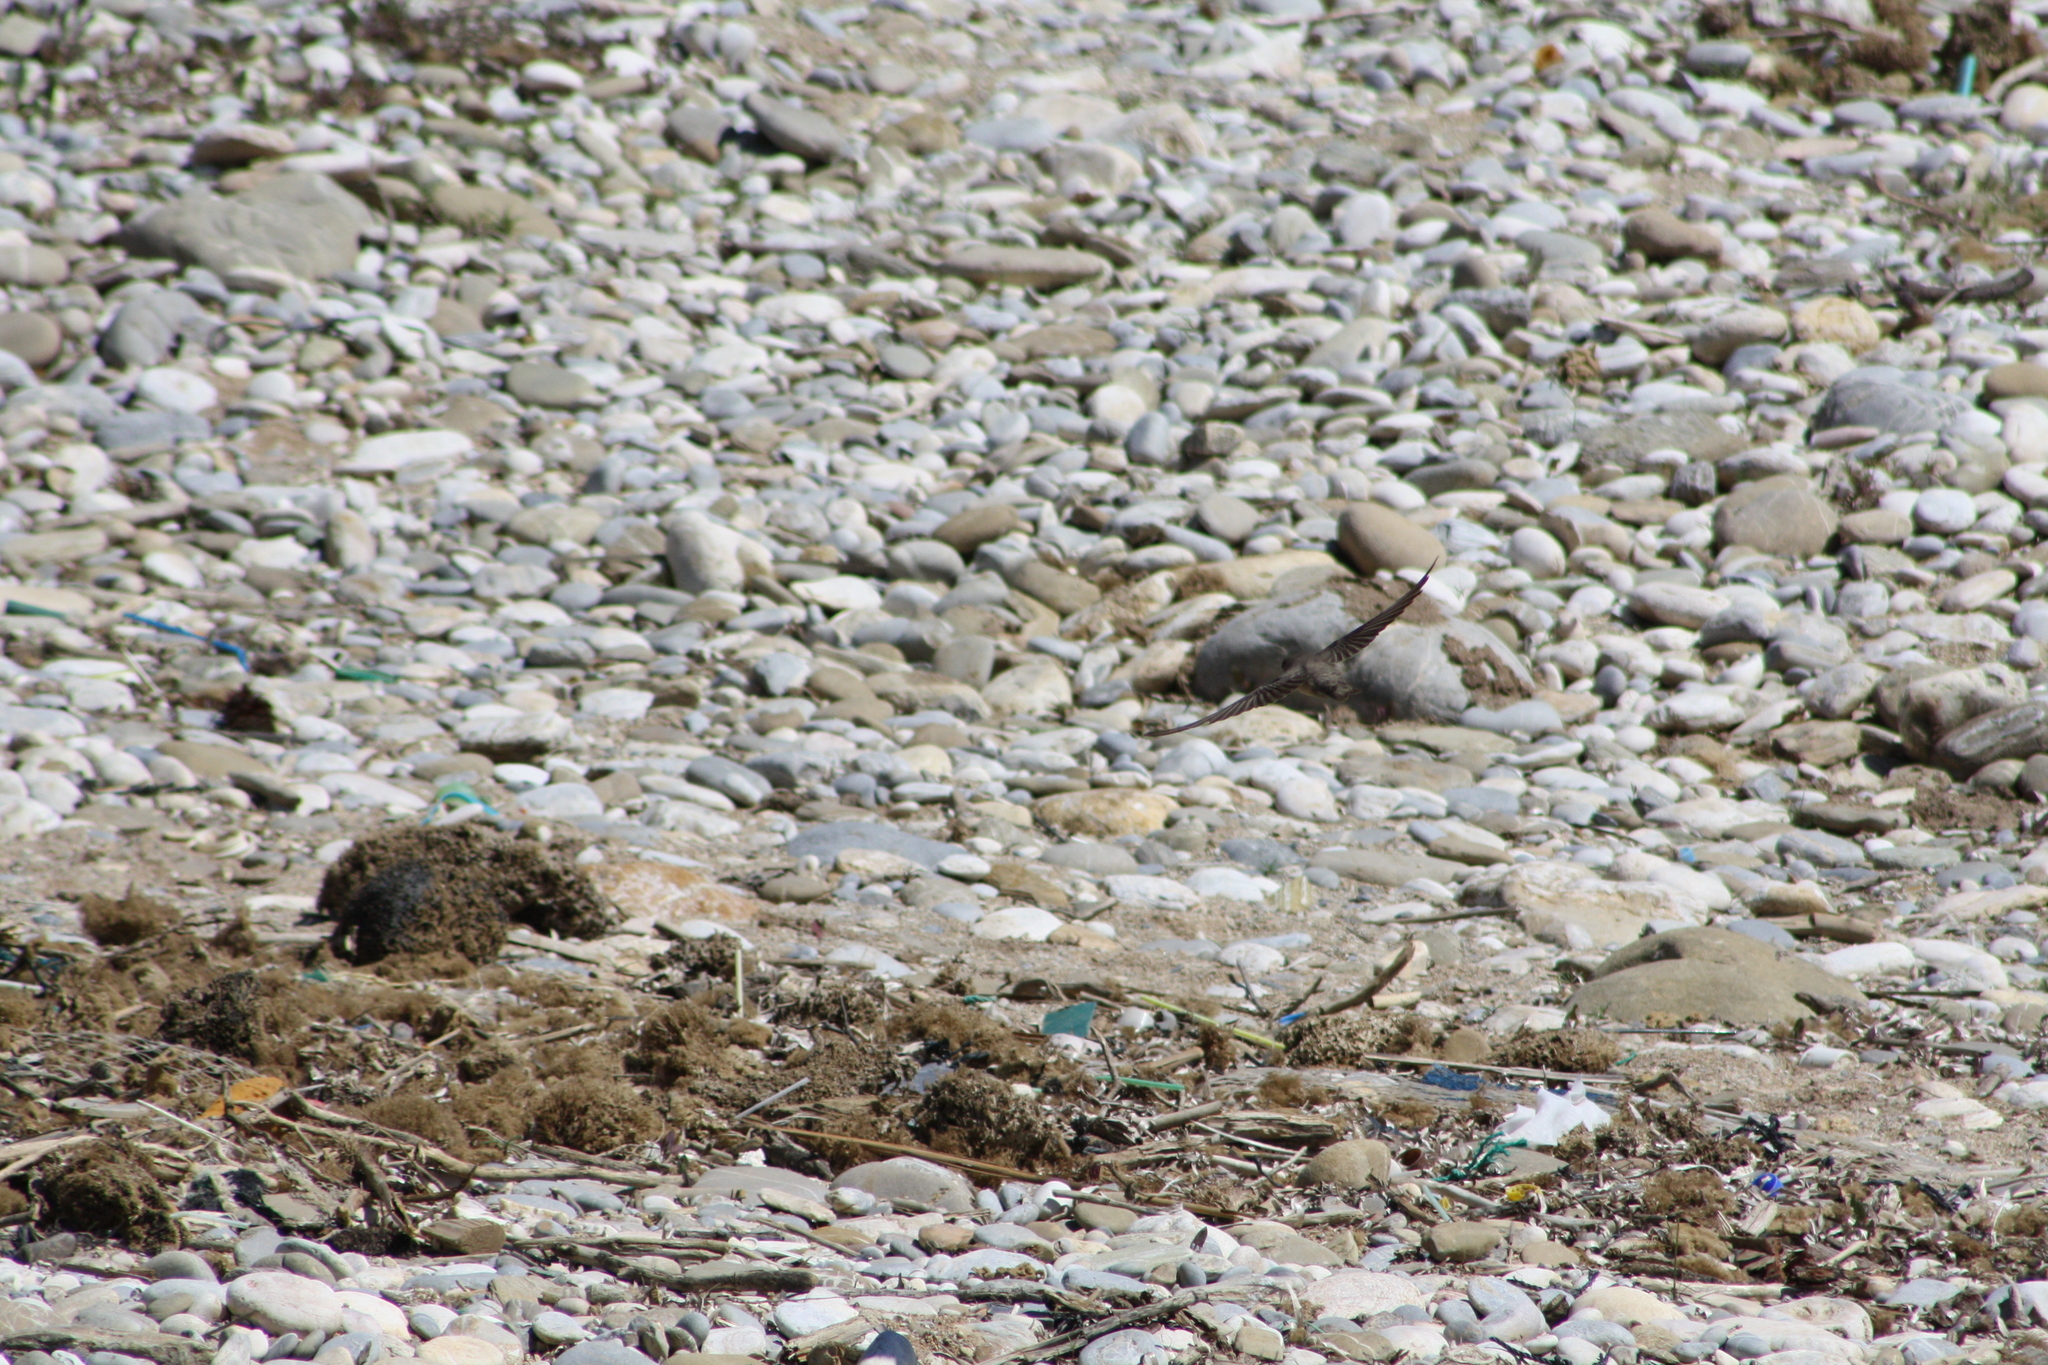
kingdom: Animalia
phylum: Chordata
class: Aves
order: Passeriformes
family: Hirundinidae
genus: Ptyonoprogne
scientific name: Ptyonoprogne rupestris
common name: Eurasian crag martin
